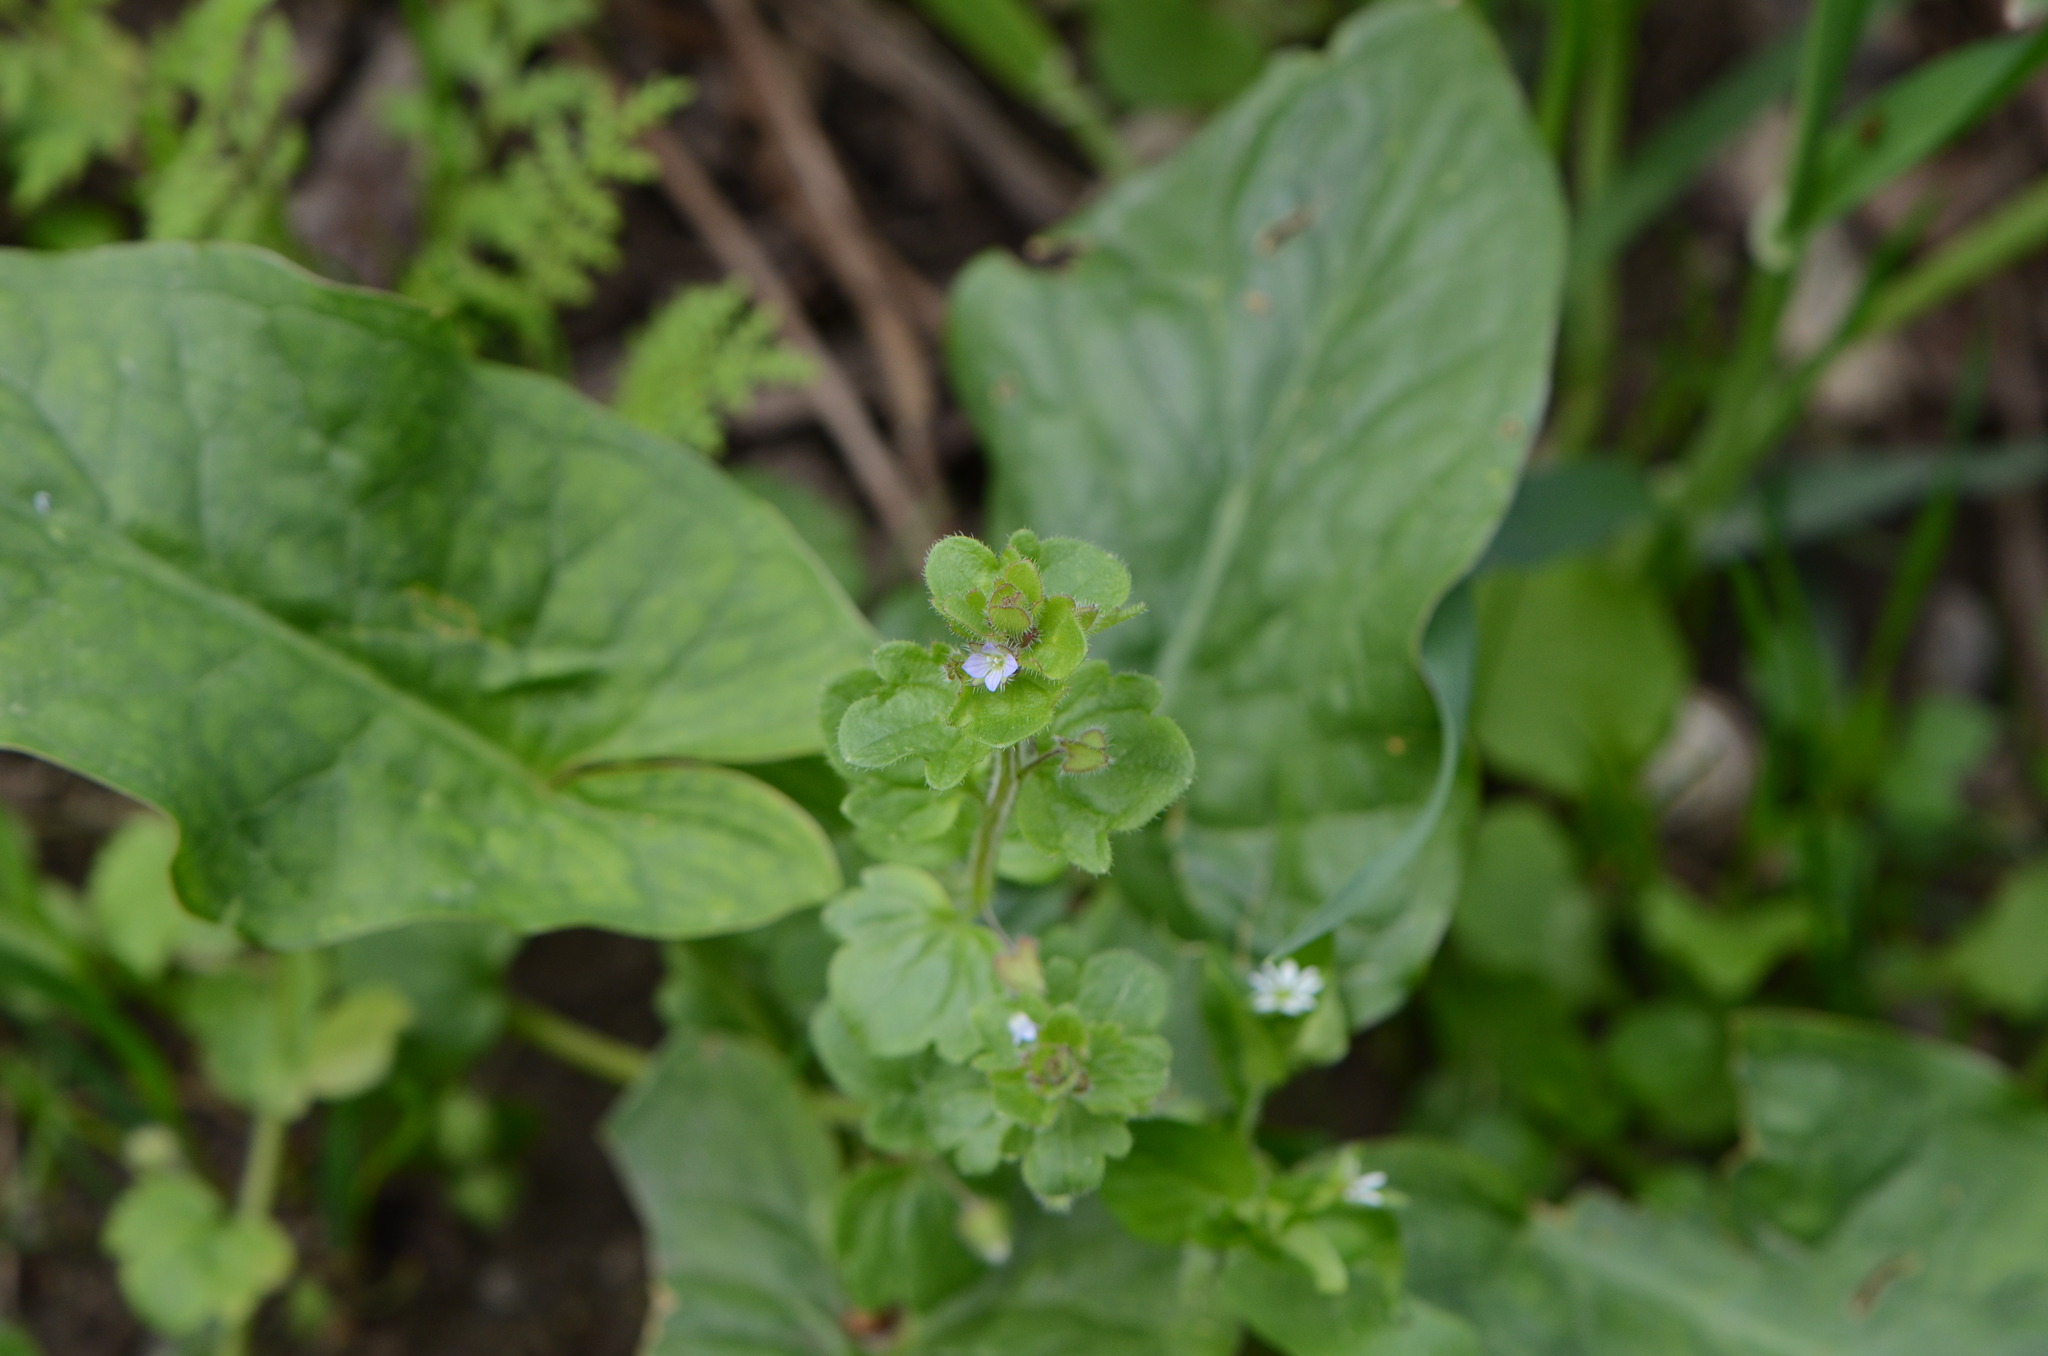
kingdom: Plantae
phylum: Tracheophyta
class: Magnoliopsida
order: Lamiales
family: Plantaginaceae
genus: Veronica
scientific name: Veronica sublobata
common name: False ivy-leaved speedwell
